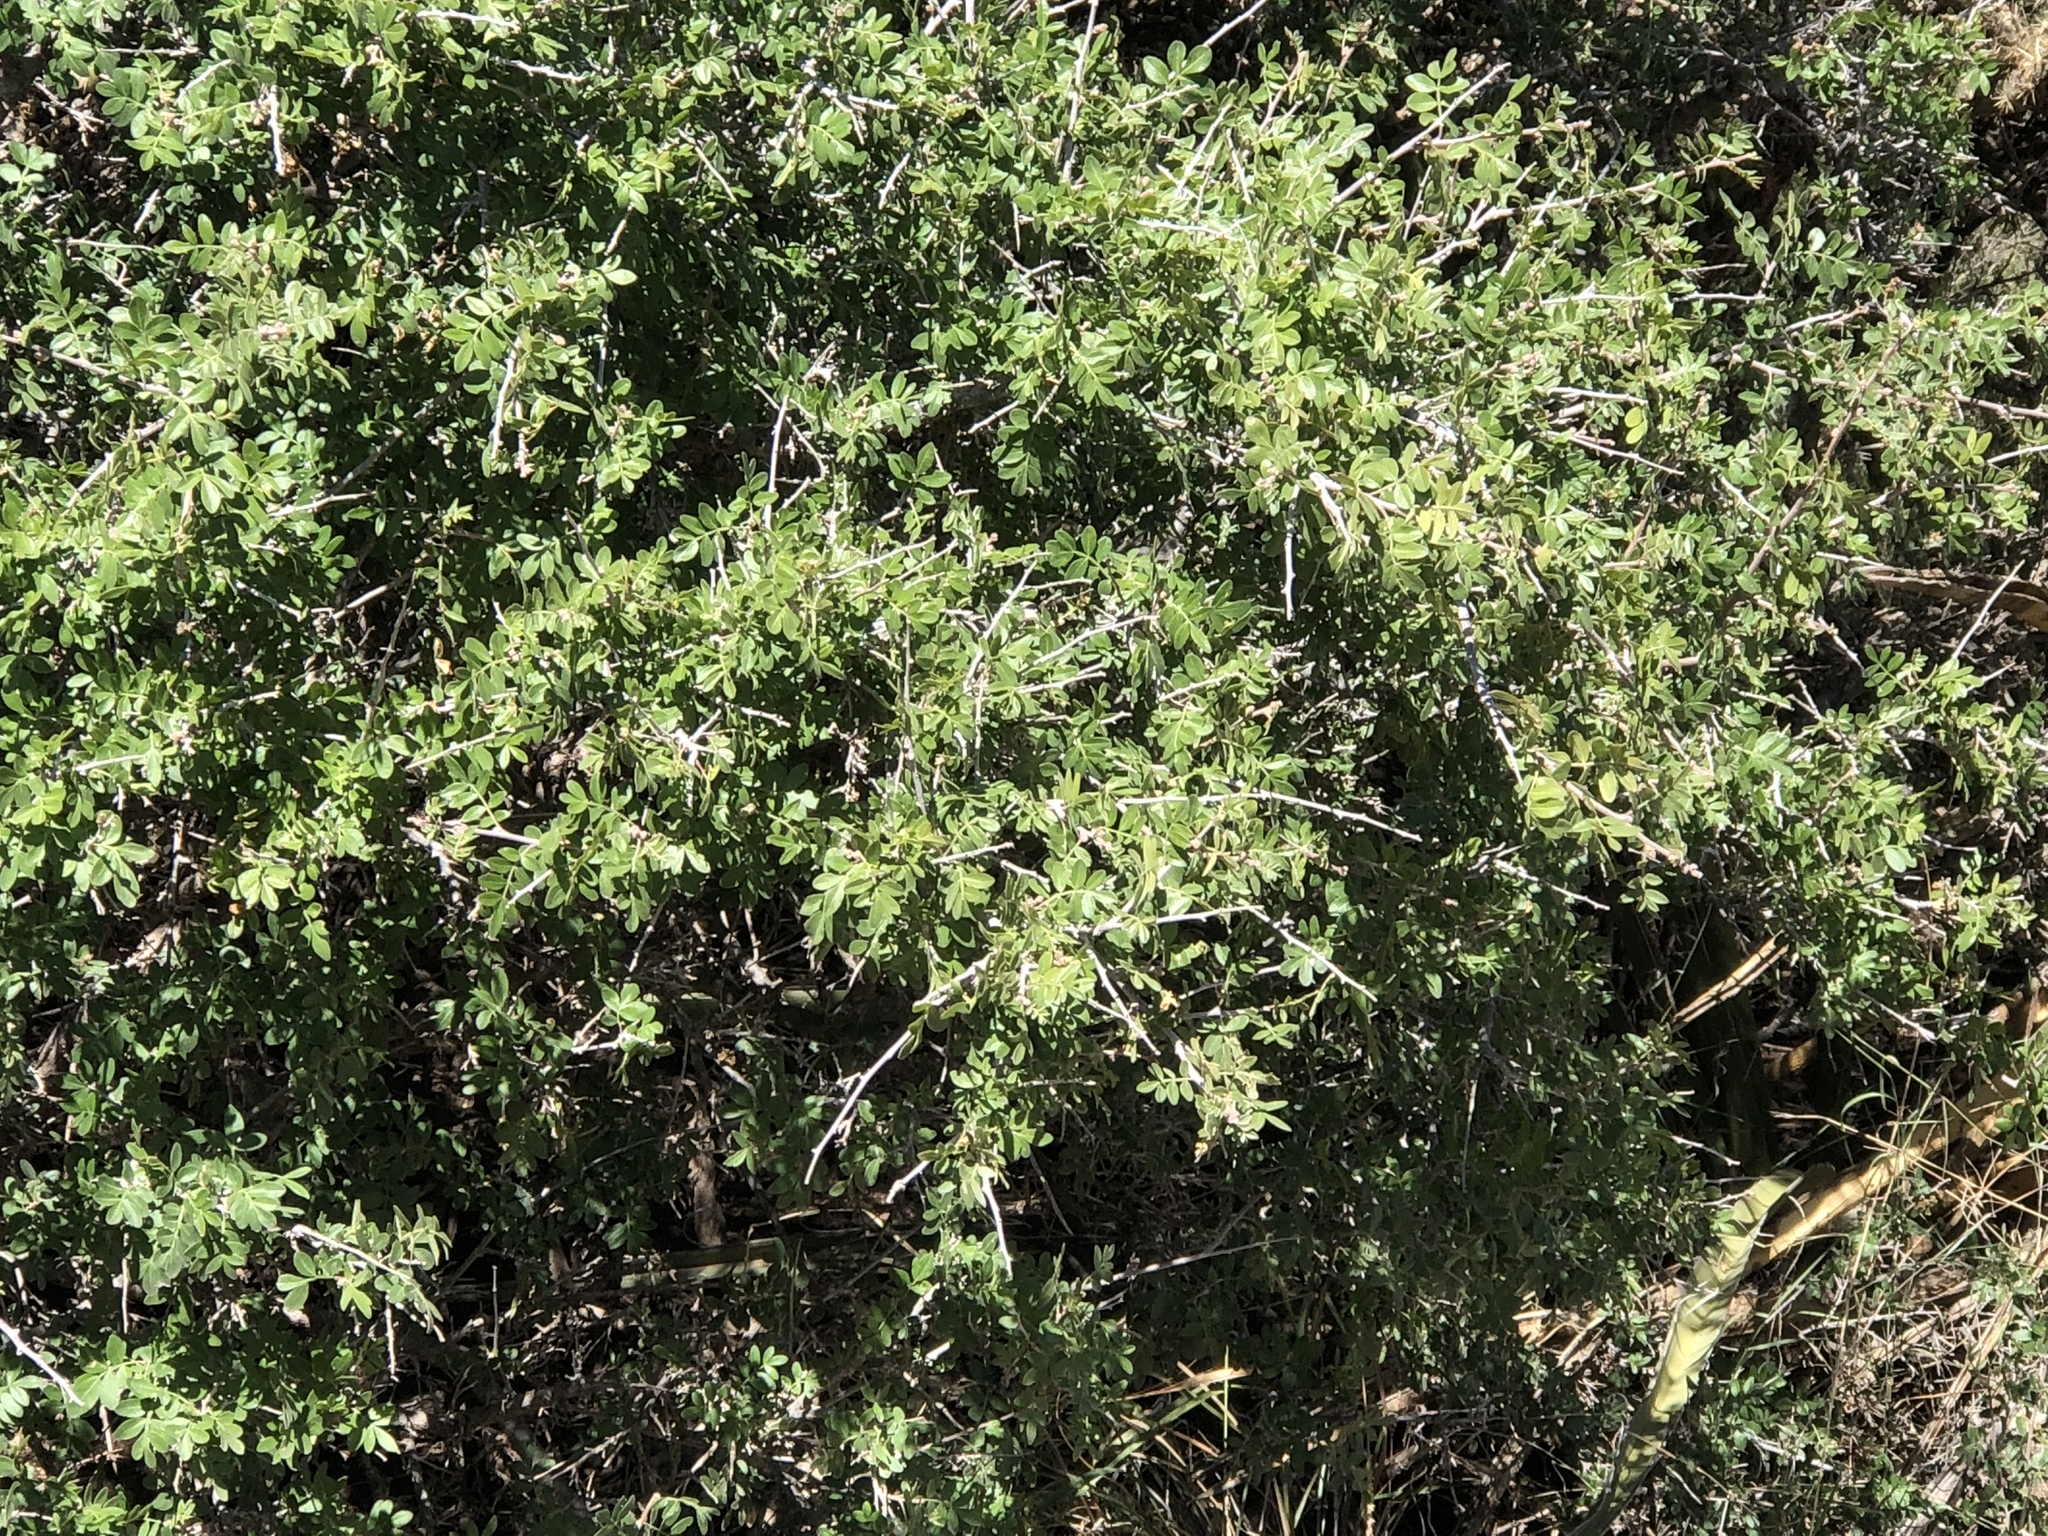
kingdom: Plantae
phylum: Tracheophyta
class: Magnoliopsida
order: Sapindales
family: Anacardiaceae
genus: Rhus
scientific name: Rhus microphylla
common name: Desert sumac
